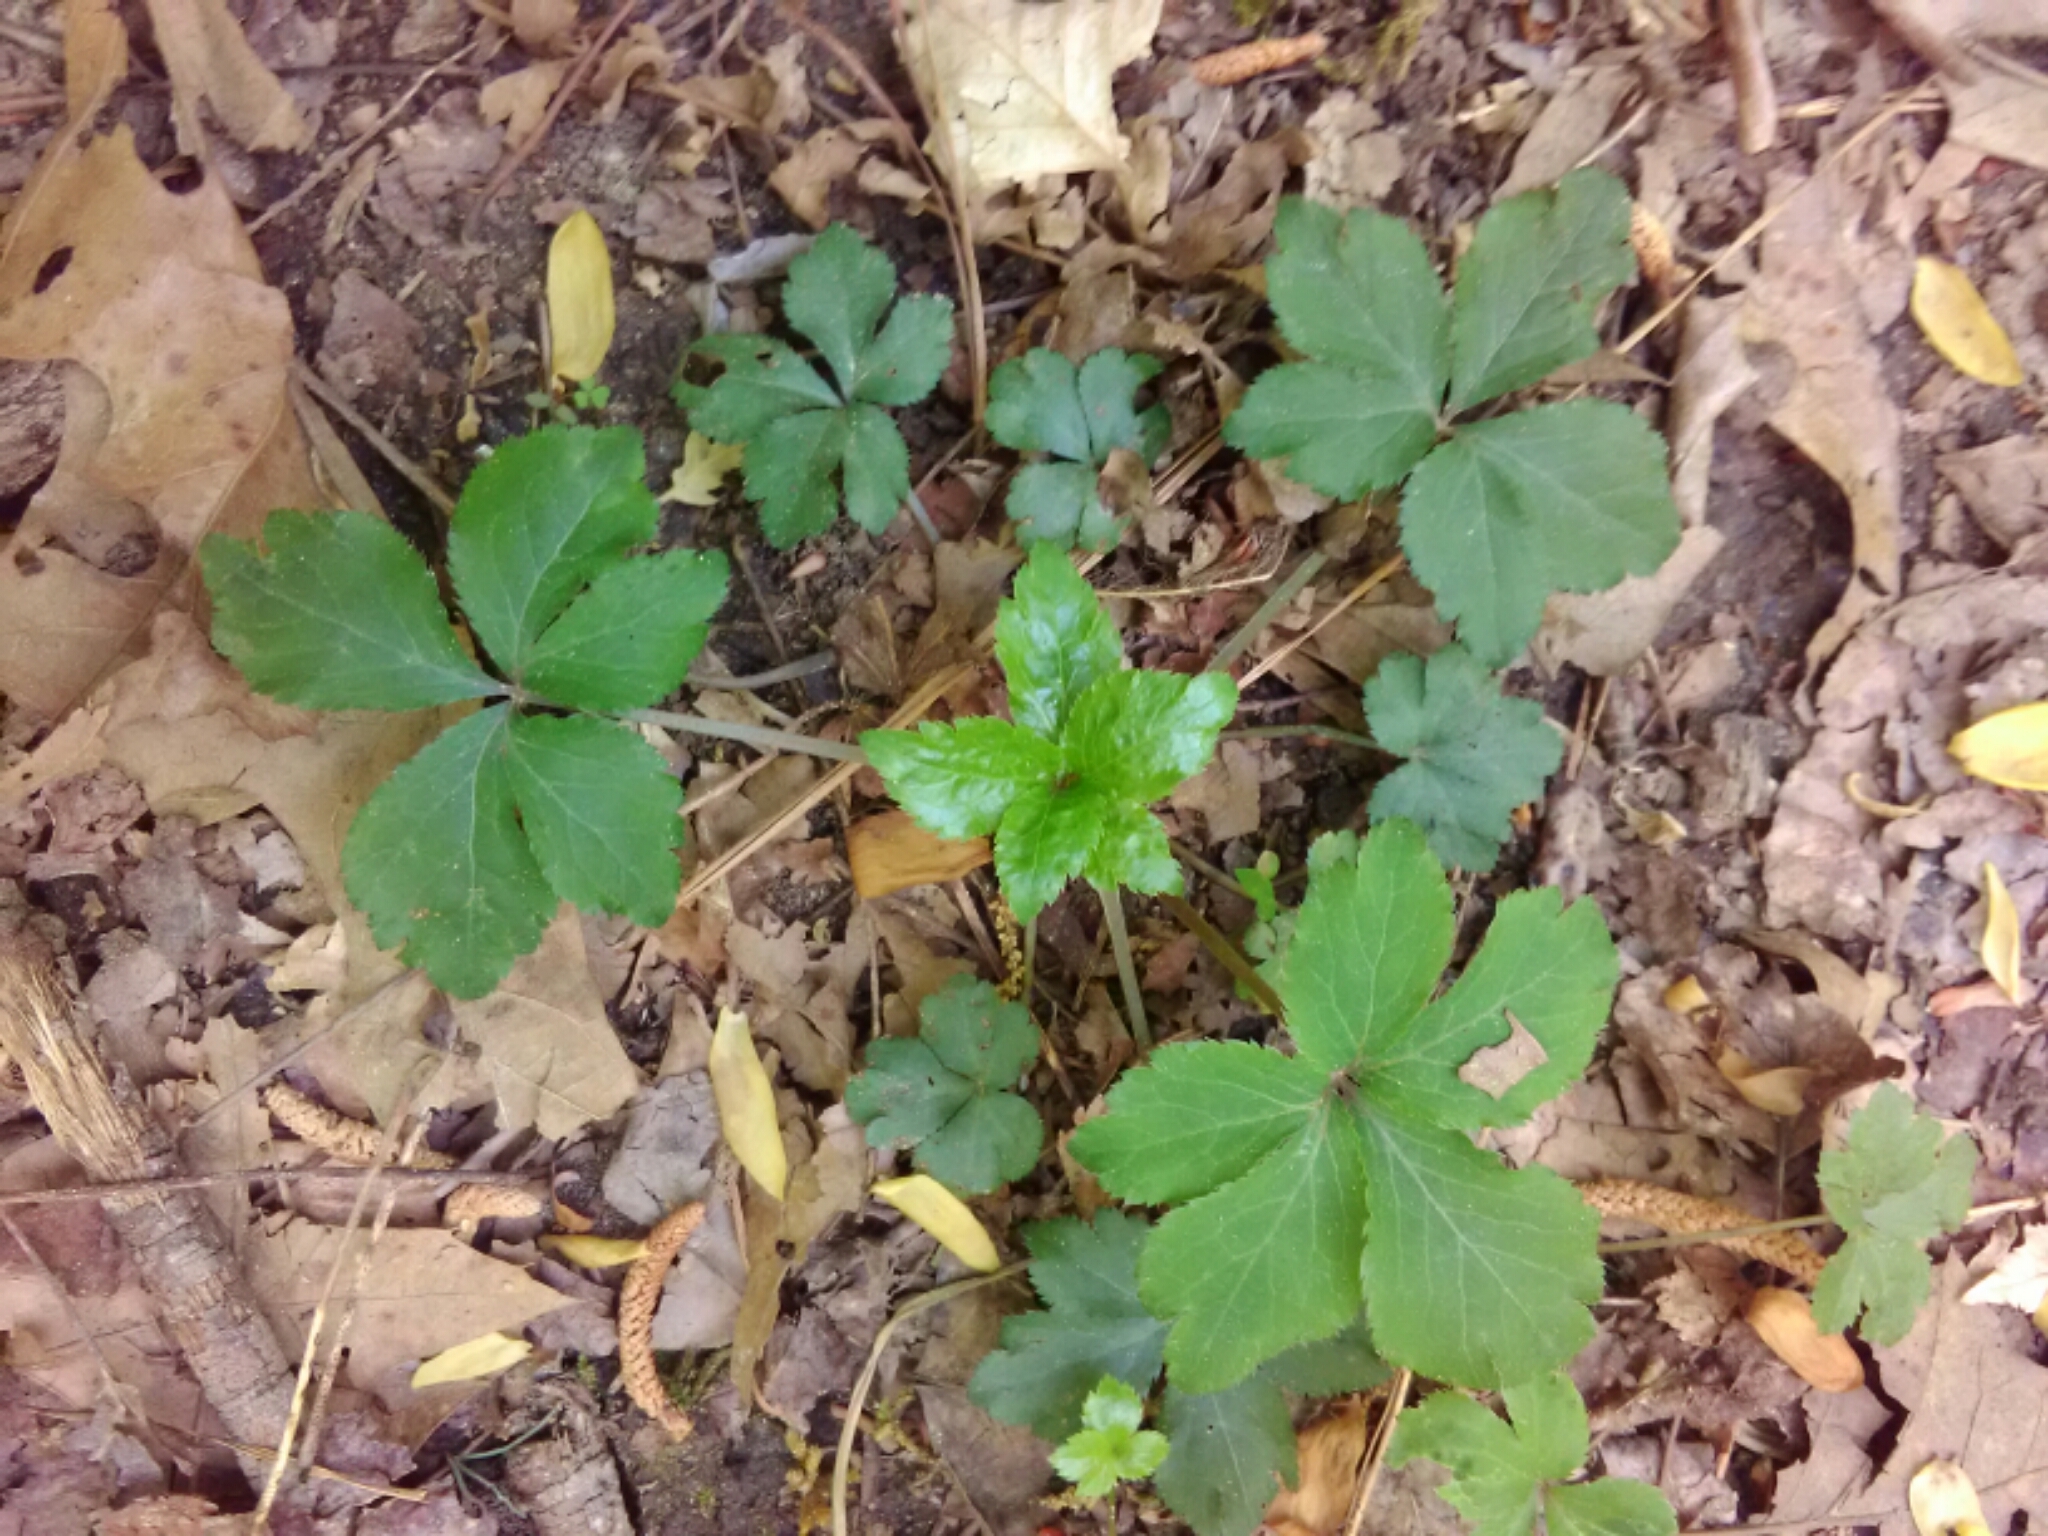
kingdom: Plantae
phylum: Tracheophyta
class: Magnoliopsida
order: Apiales
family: Apiaceae
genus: Sanicula
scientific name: Sanicula canadensis
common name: Canada sanicle
